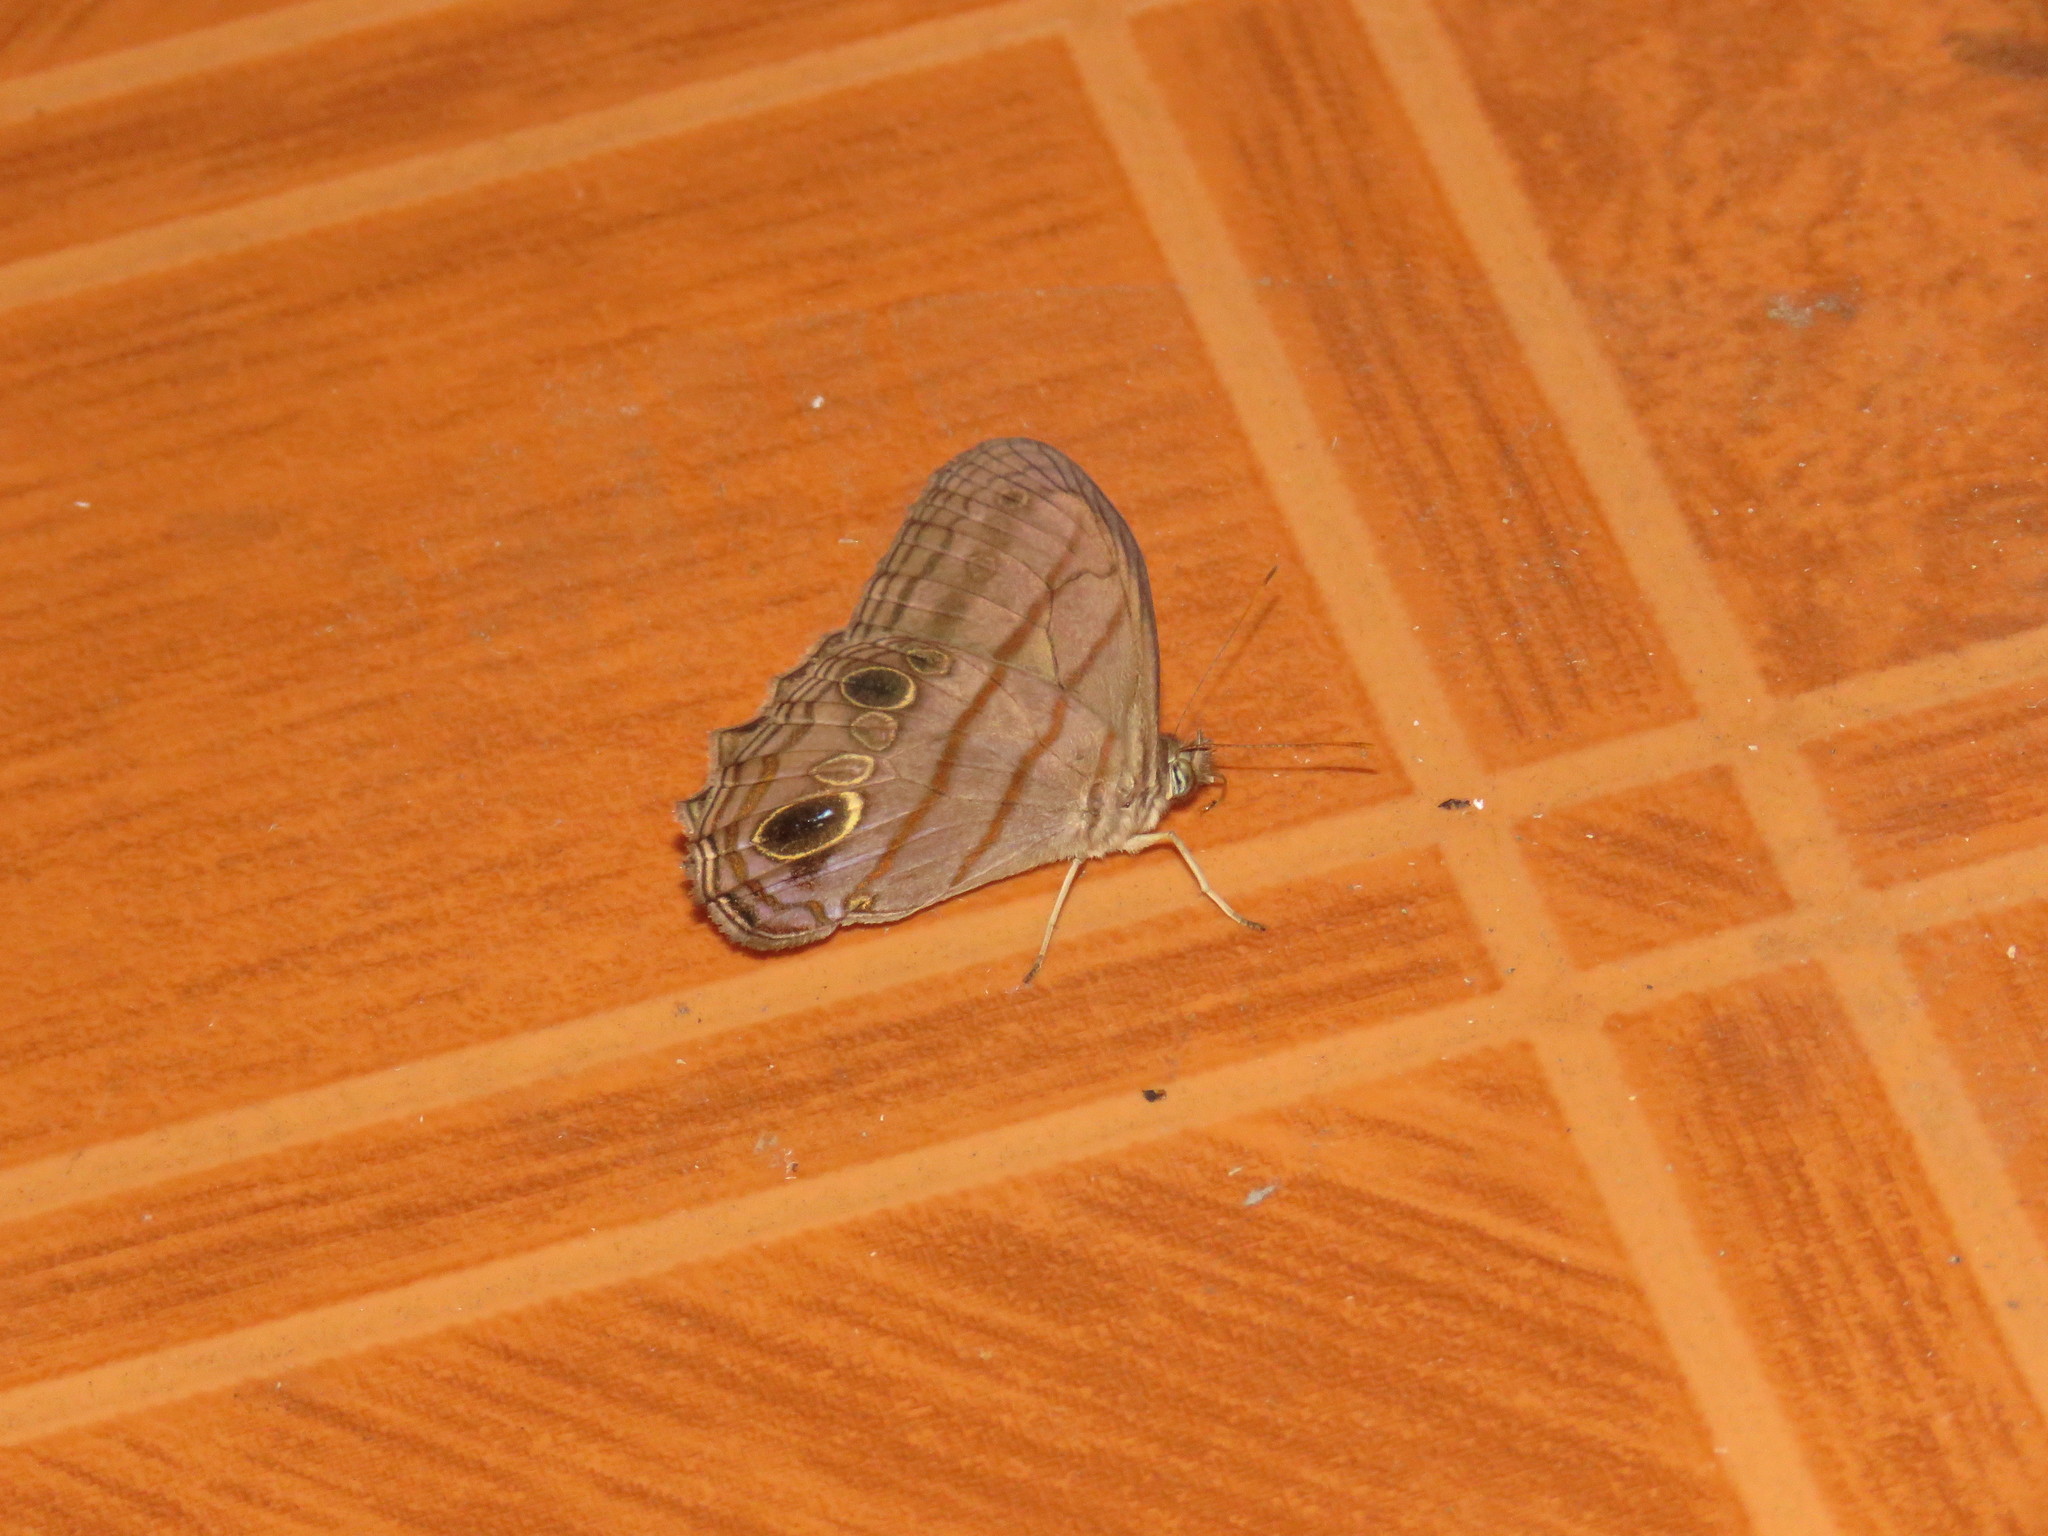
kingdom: Animalia
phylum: Arthropoda
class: Insecta
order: Lepidoptera
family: Nymphalidae
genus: Magneuptychia
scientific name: Magneuptychia libye
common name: Blue-gray satyr
